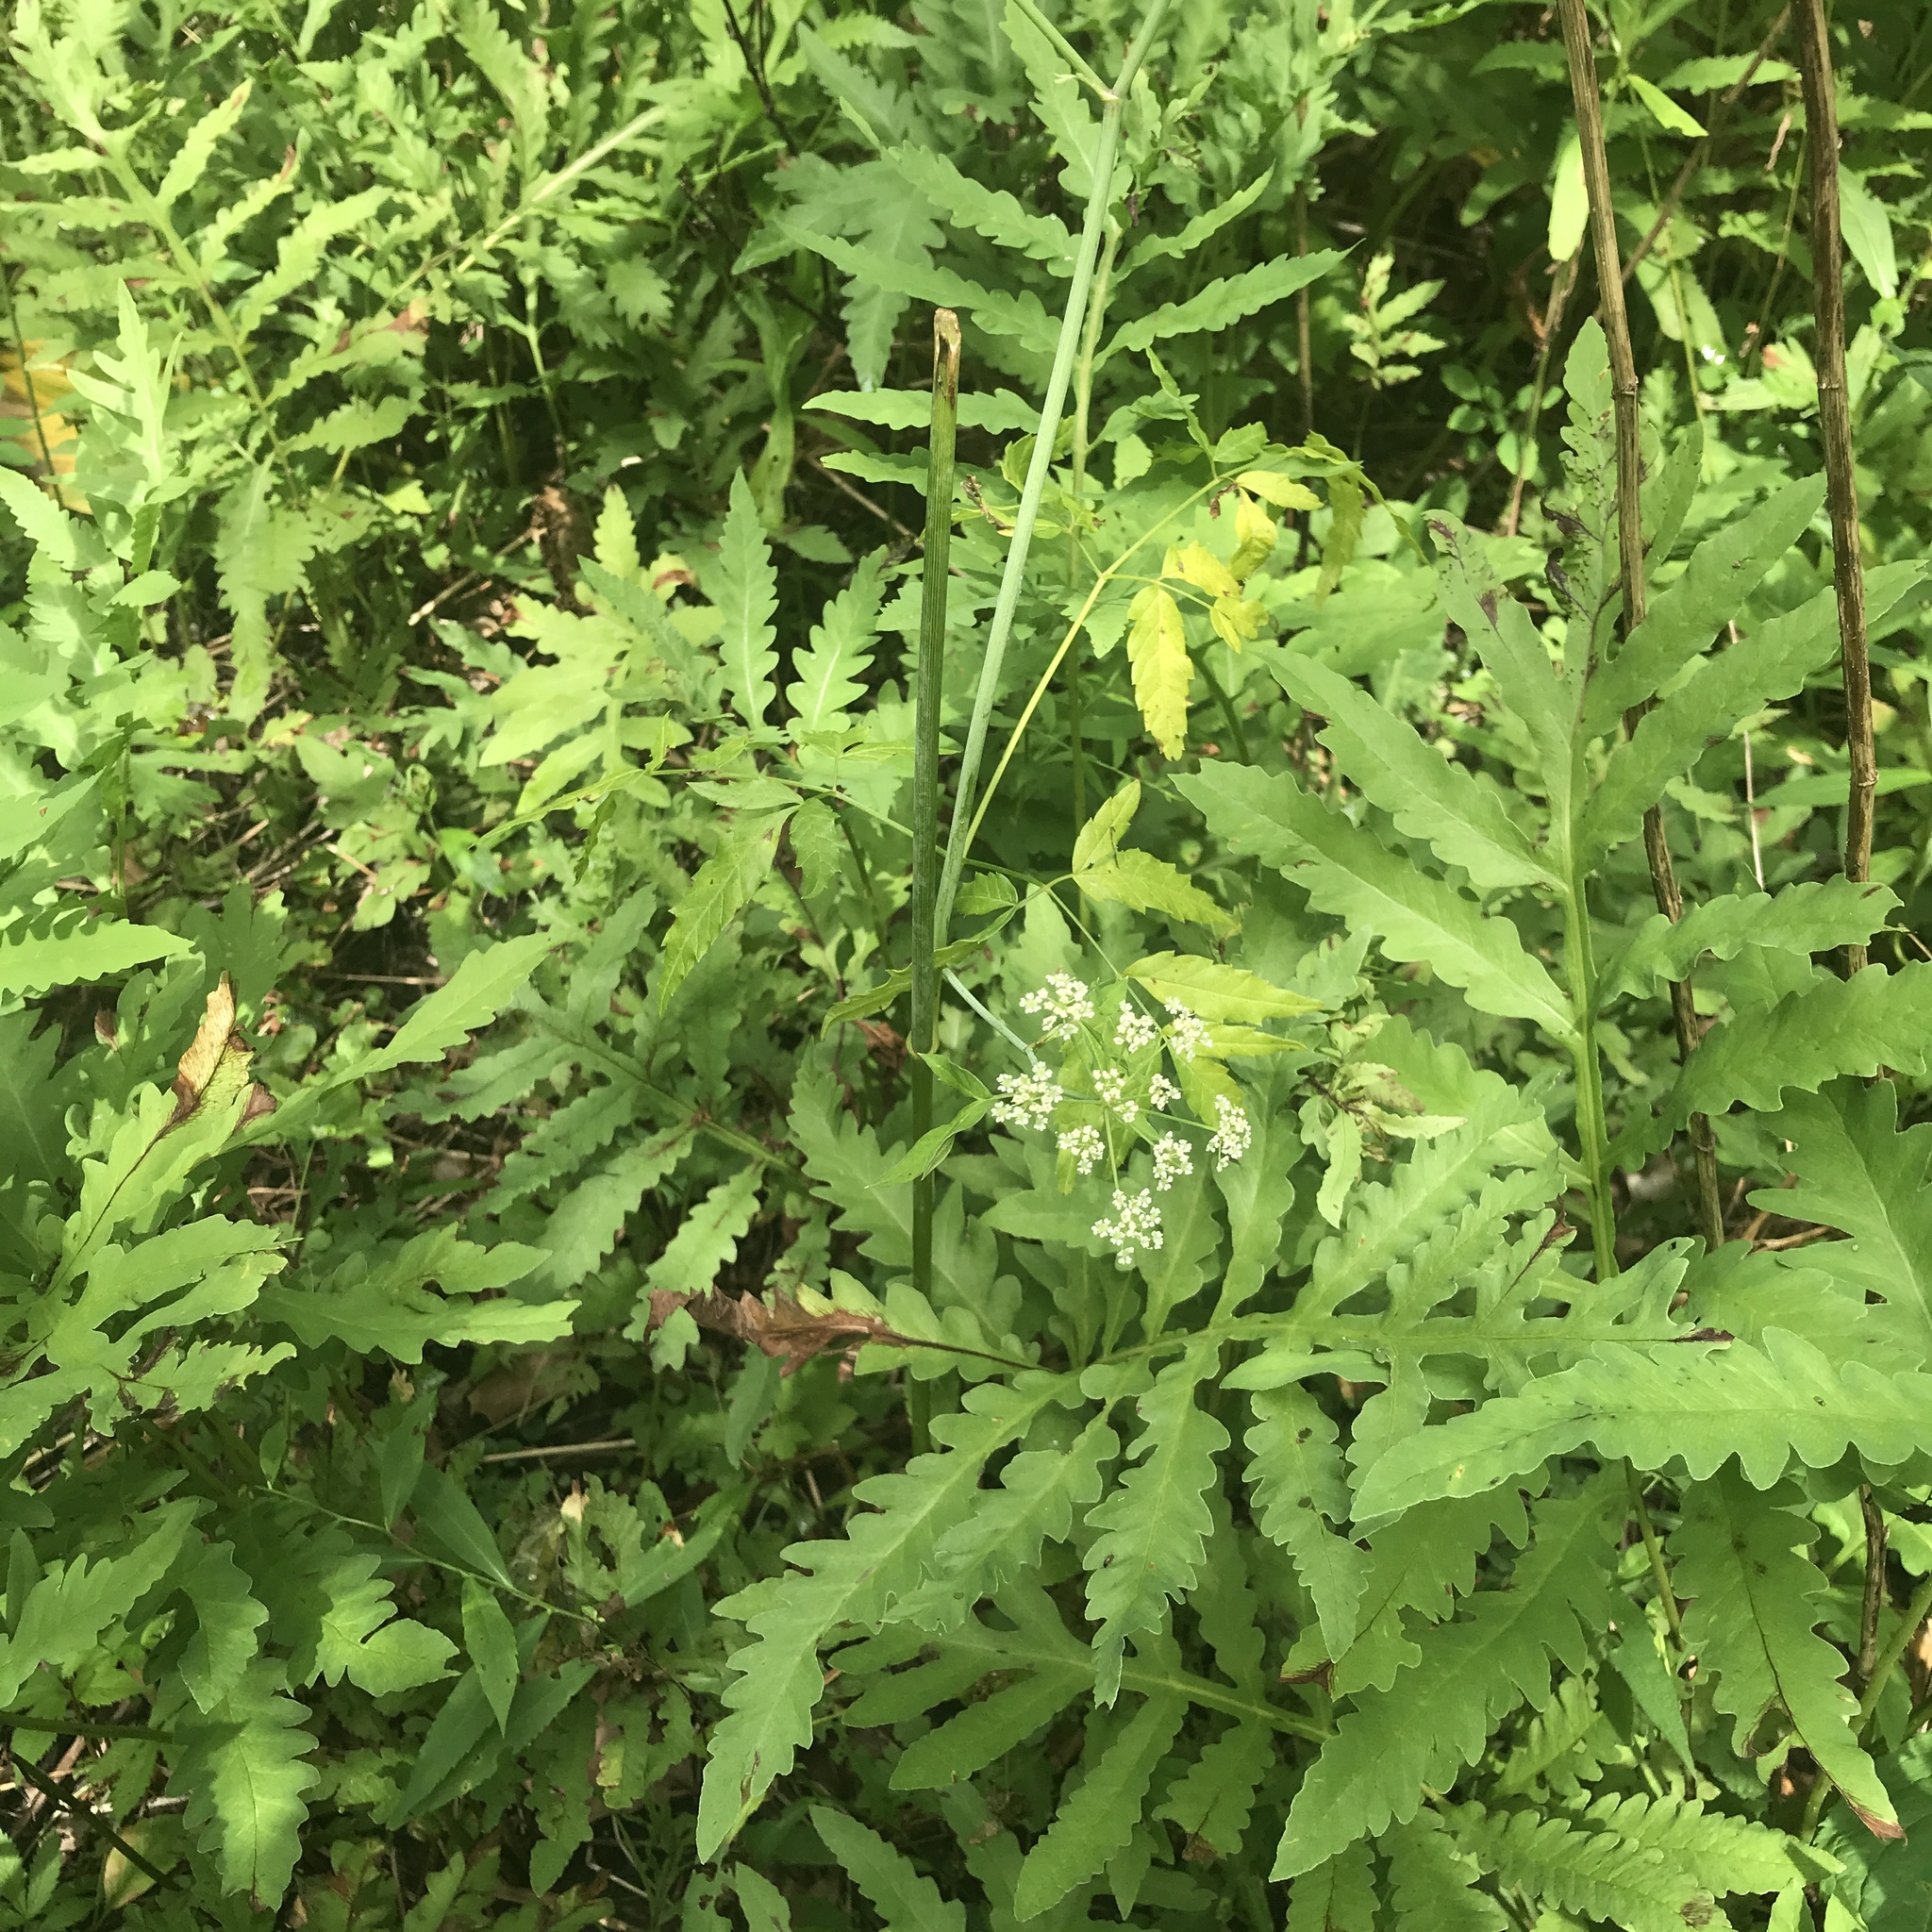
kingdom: Plantae
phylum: Tracheophyta
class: Magnoliopsida
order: Apiales
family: Apiaceae
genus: Conium
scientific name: Conium maculatum
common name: Hemlock
